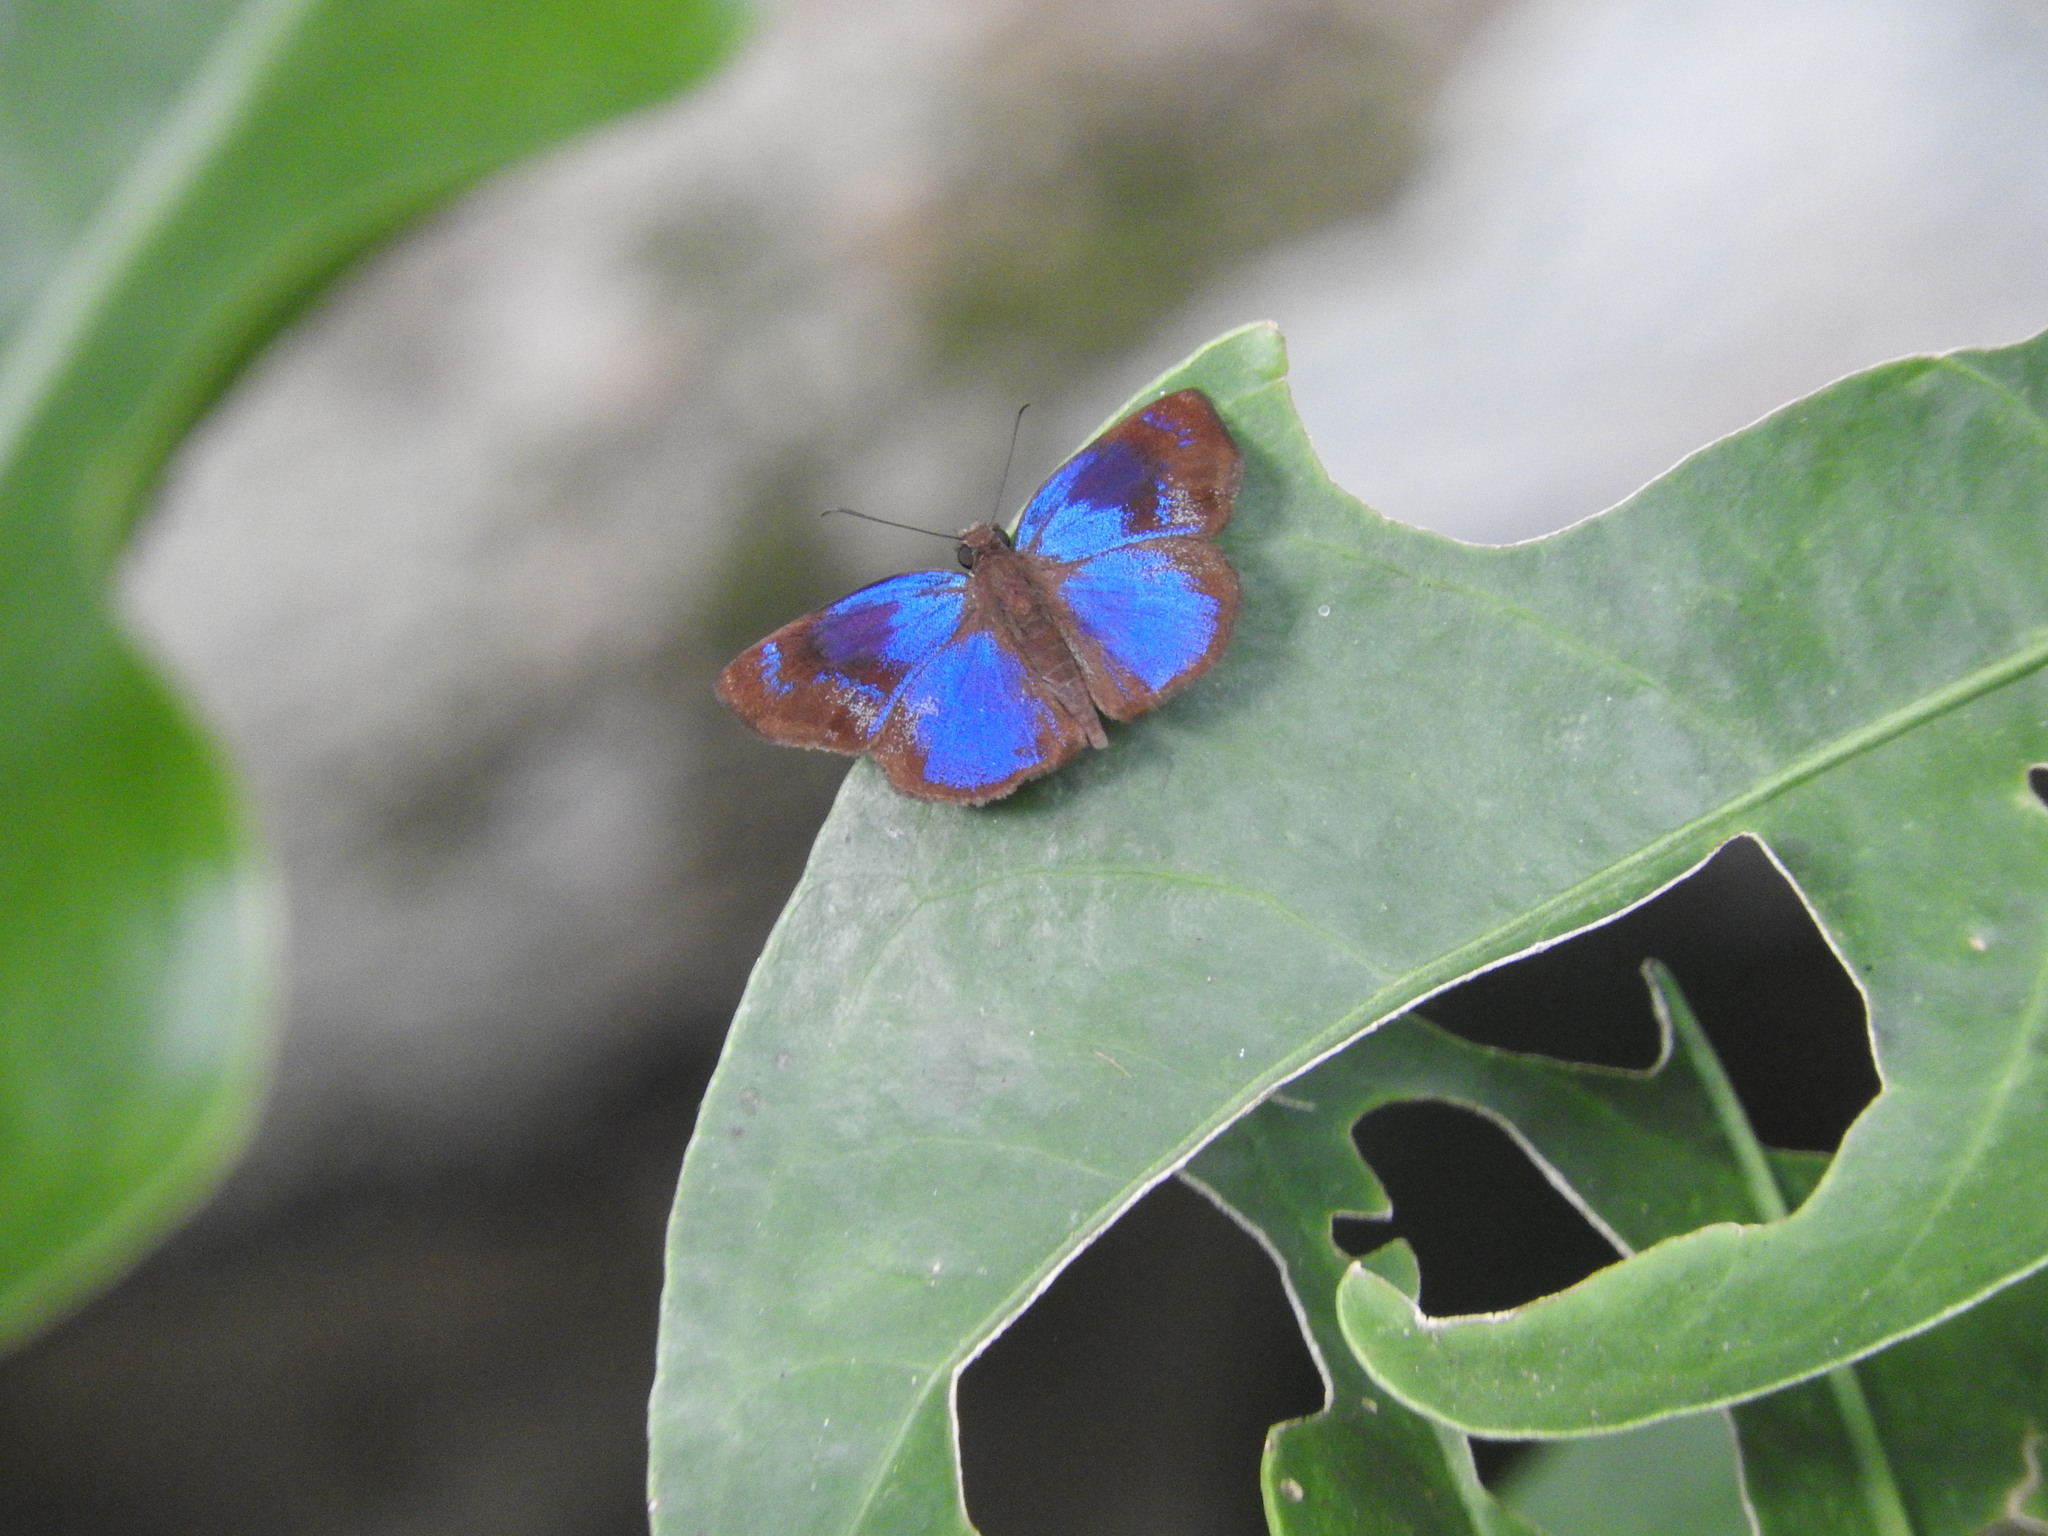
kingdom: Animalia
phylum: Arthropoda
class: Insecta
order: Lepidoptera
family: Hesperiidae
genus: Paches
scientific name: Paches loxus
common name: Glorious blue-skipper
